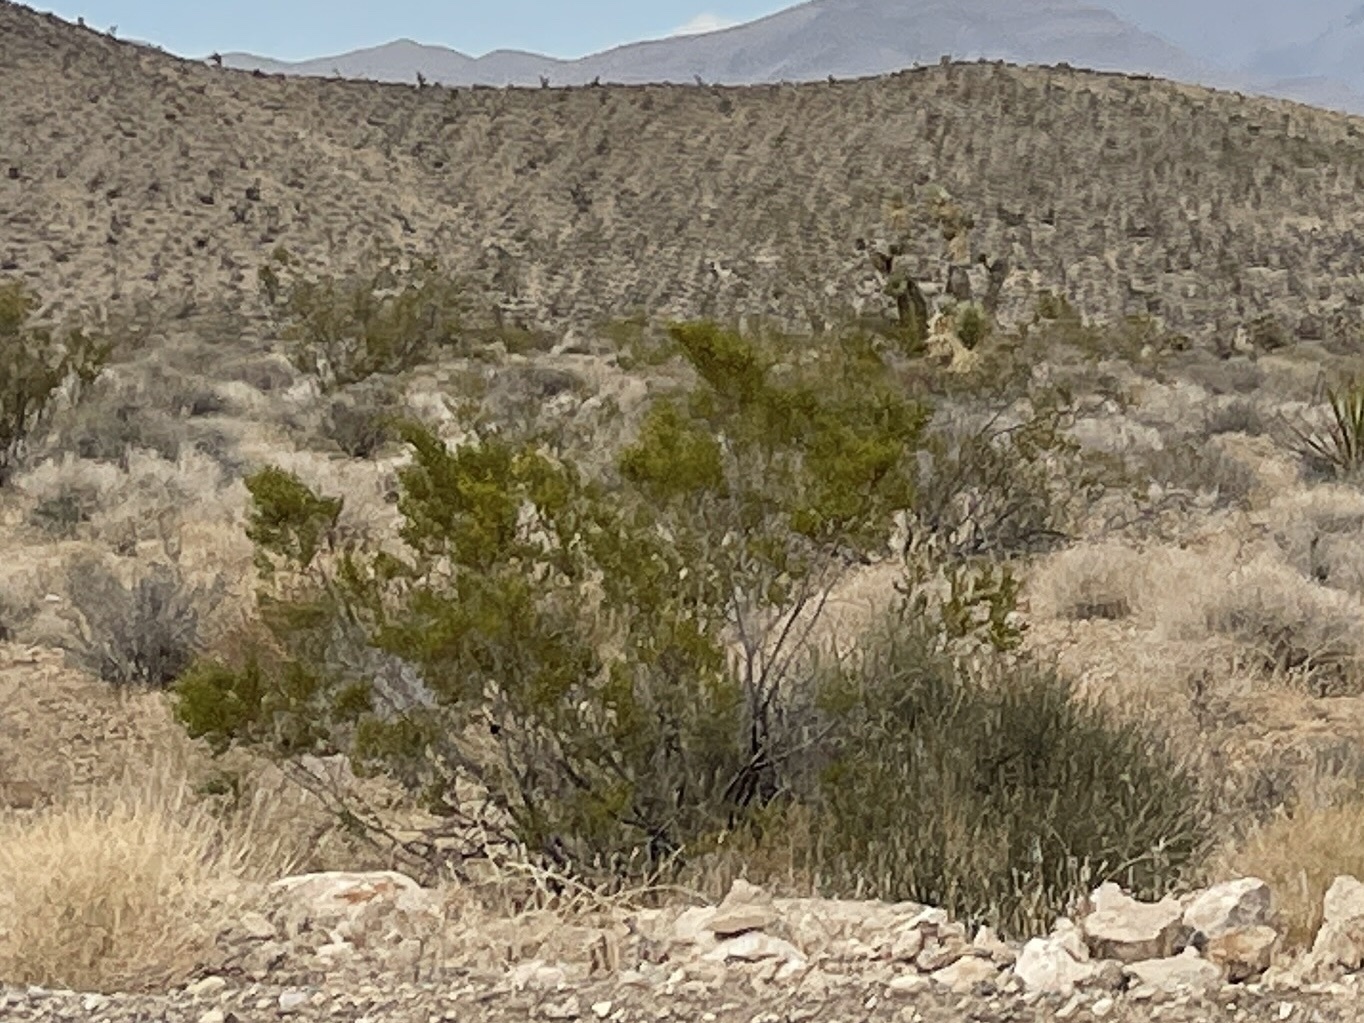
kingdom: Plantae
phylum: Tracheophyta
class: Magnoliopsida
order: Zygophyllales
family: Zygophyllaceae
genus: Larrea
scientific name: Larrea tridentata
